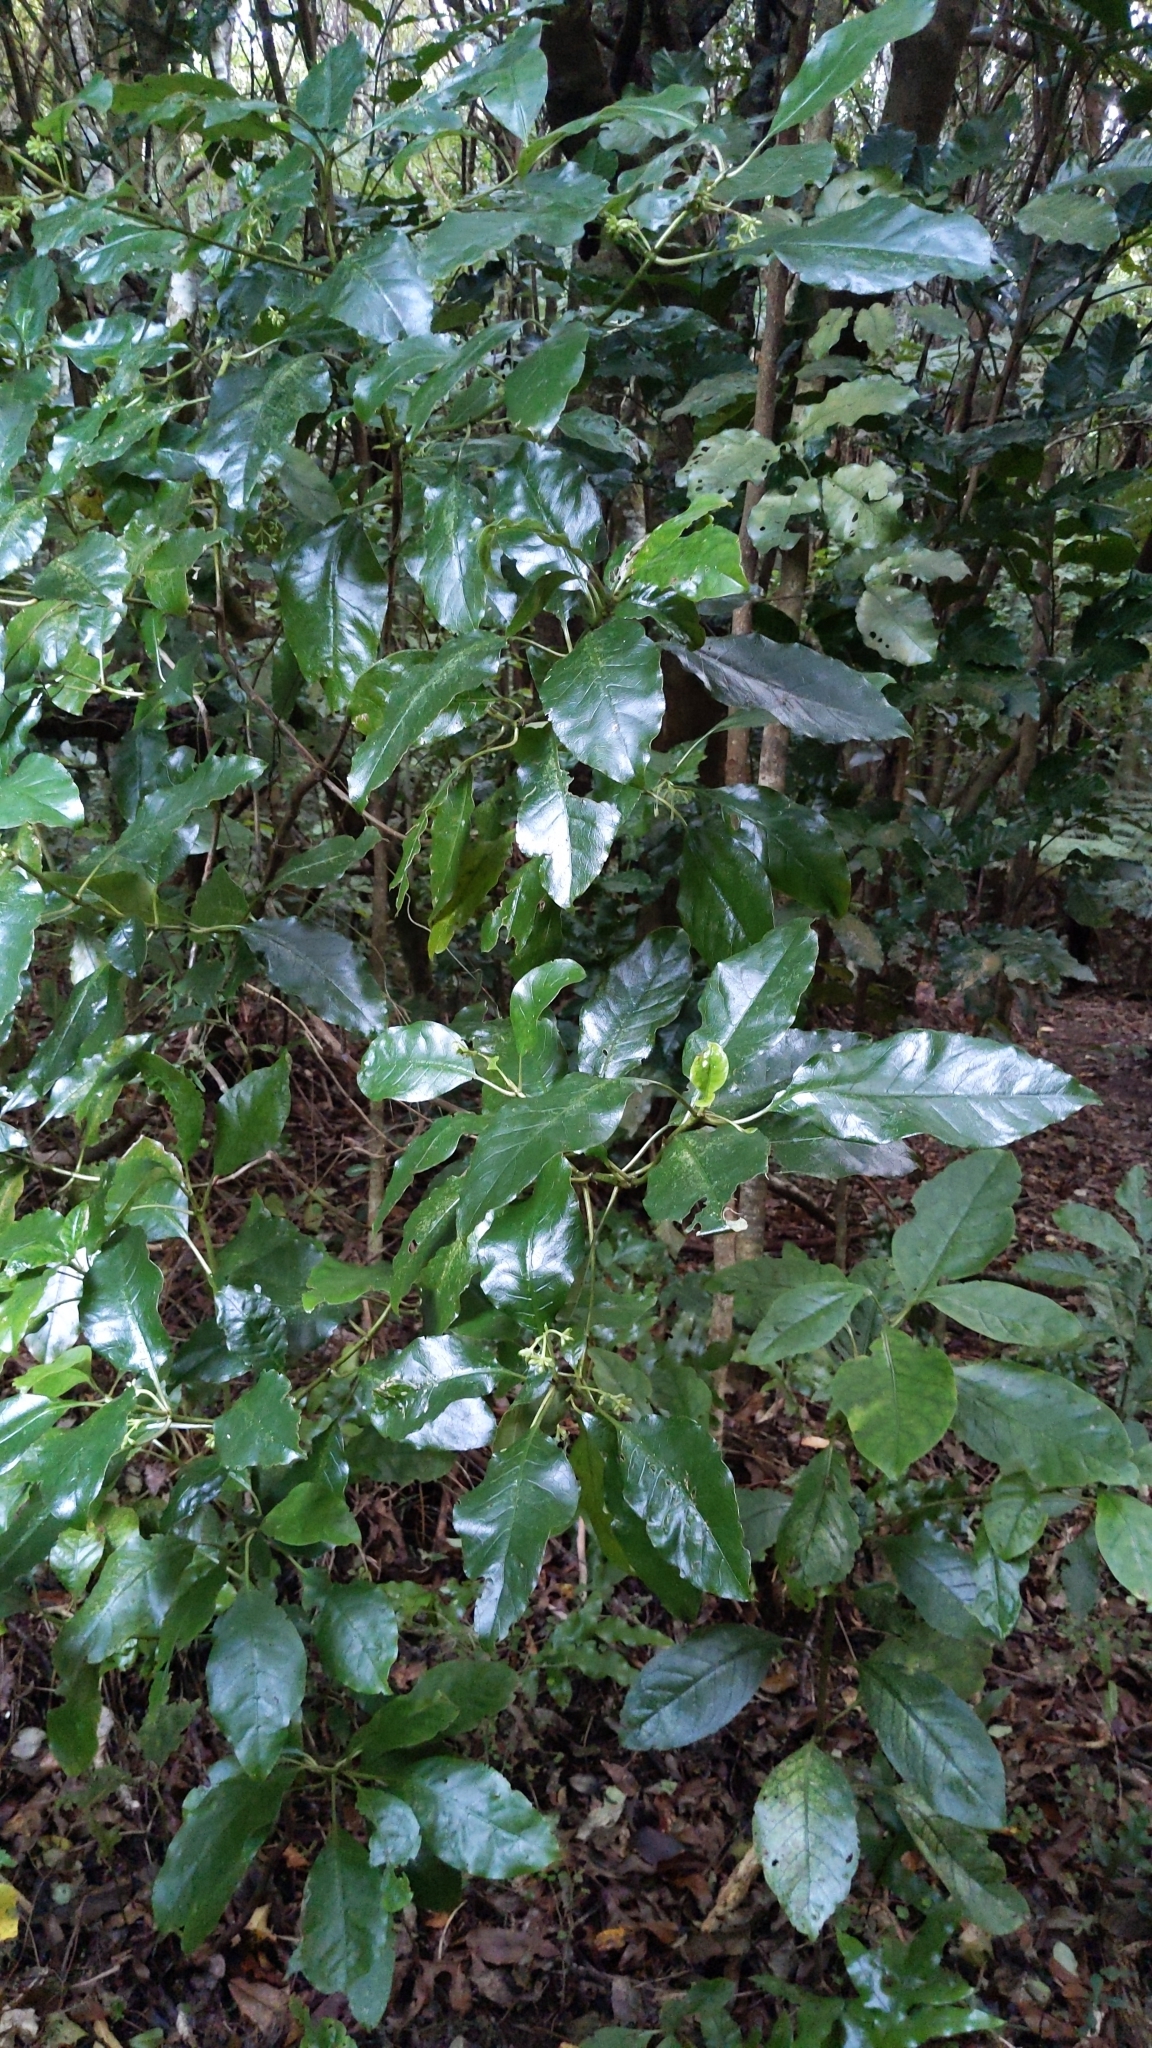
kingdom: Plantae
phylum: Tracheophyta
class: Magnoliopsida
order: Gentianales
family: Rubiaceae
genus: Coprosma
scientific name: Coprosma autumnalis
